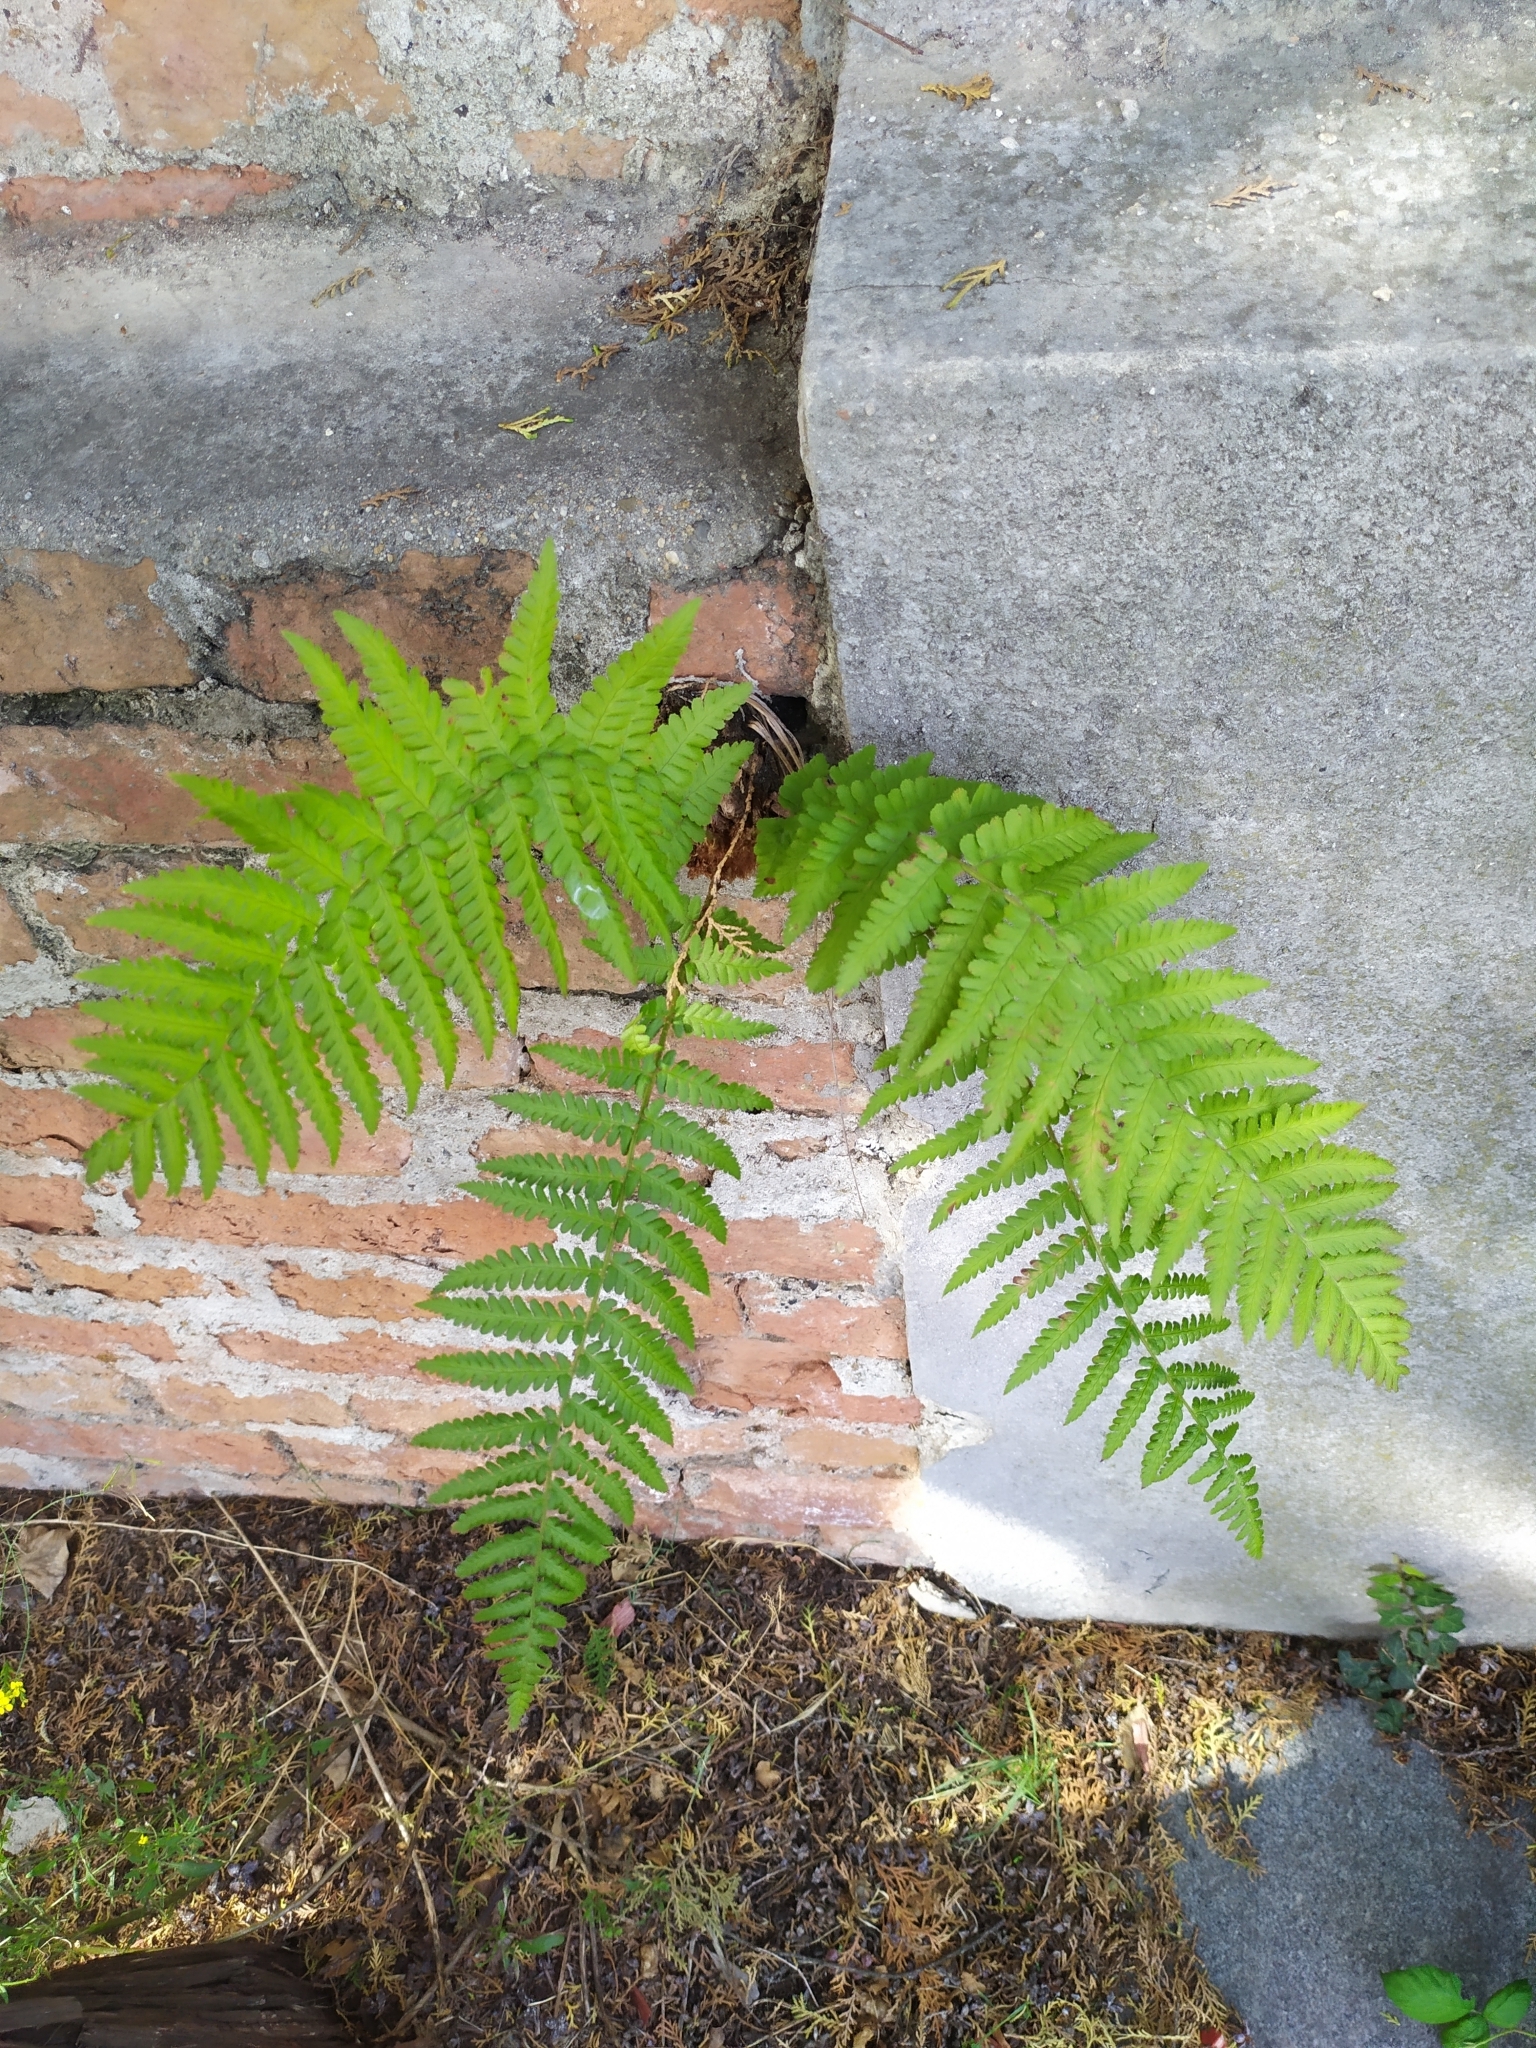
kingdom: Plantae
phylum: Tracheophyta
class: Polypodiopsida
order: Polypodiales
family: Dryopteridaceae
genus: Dryopteris
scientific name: Dryopteris filix-mas
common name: Male fern
